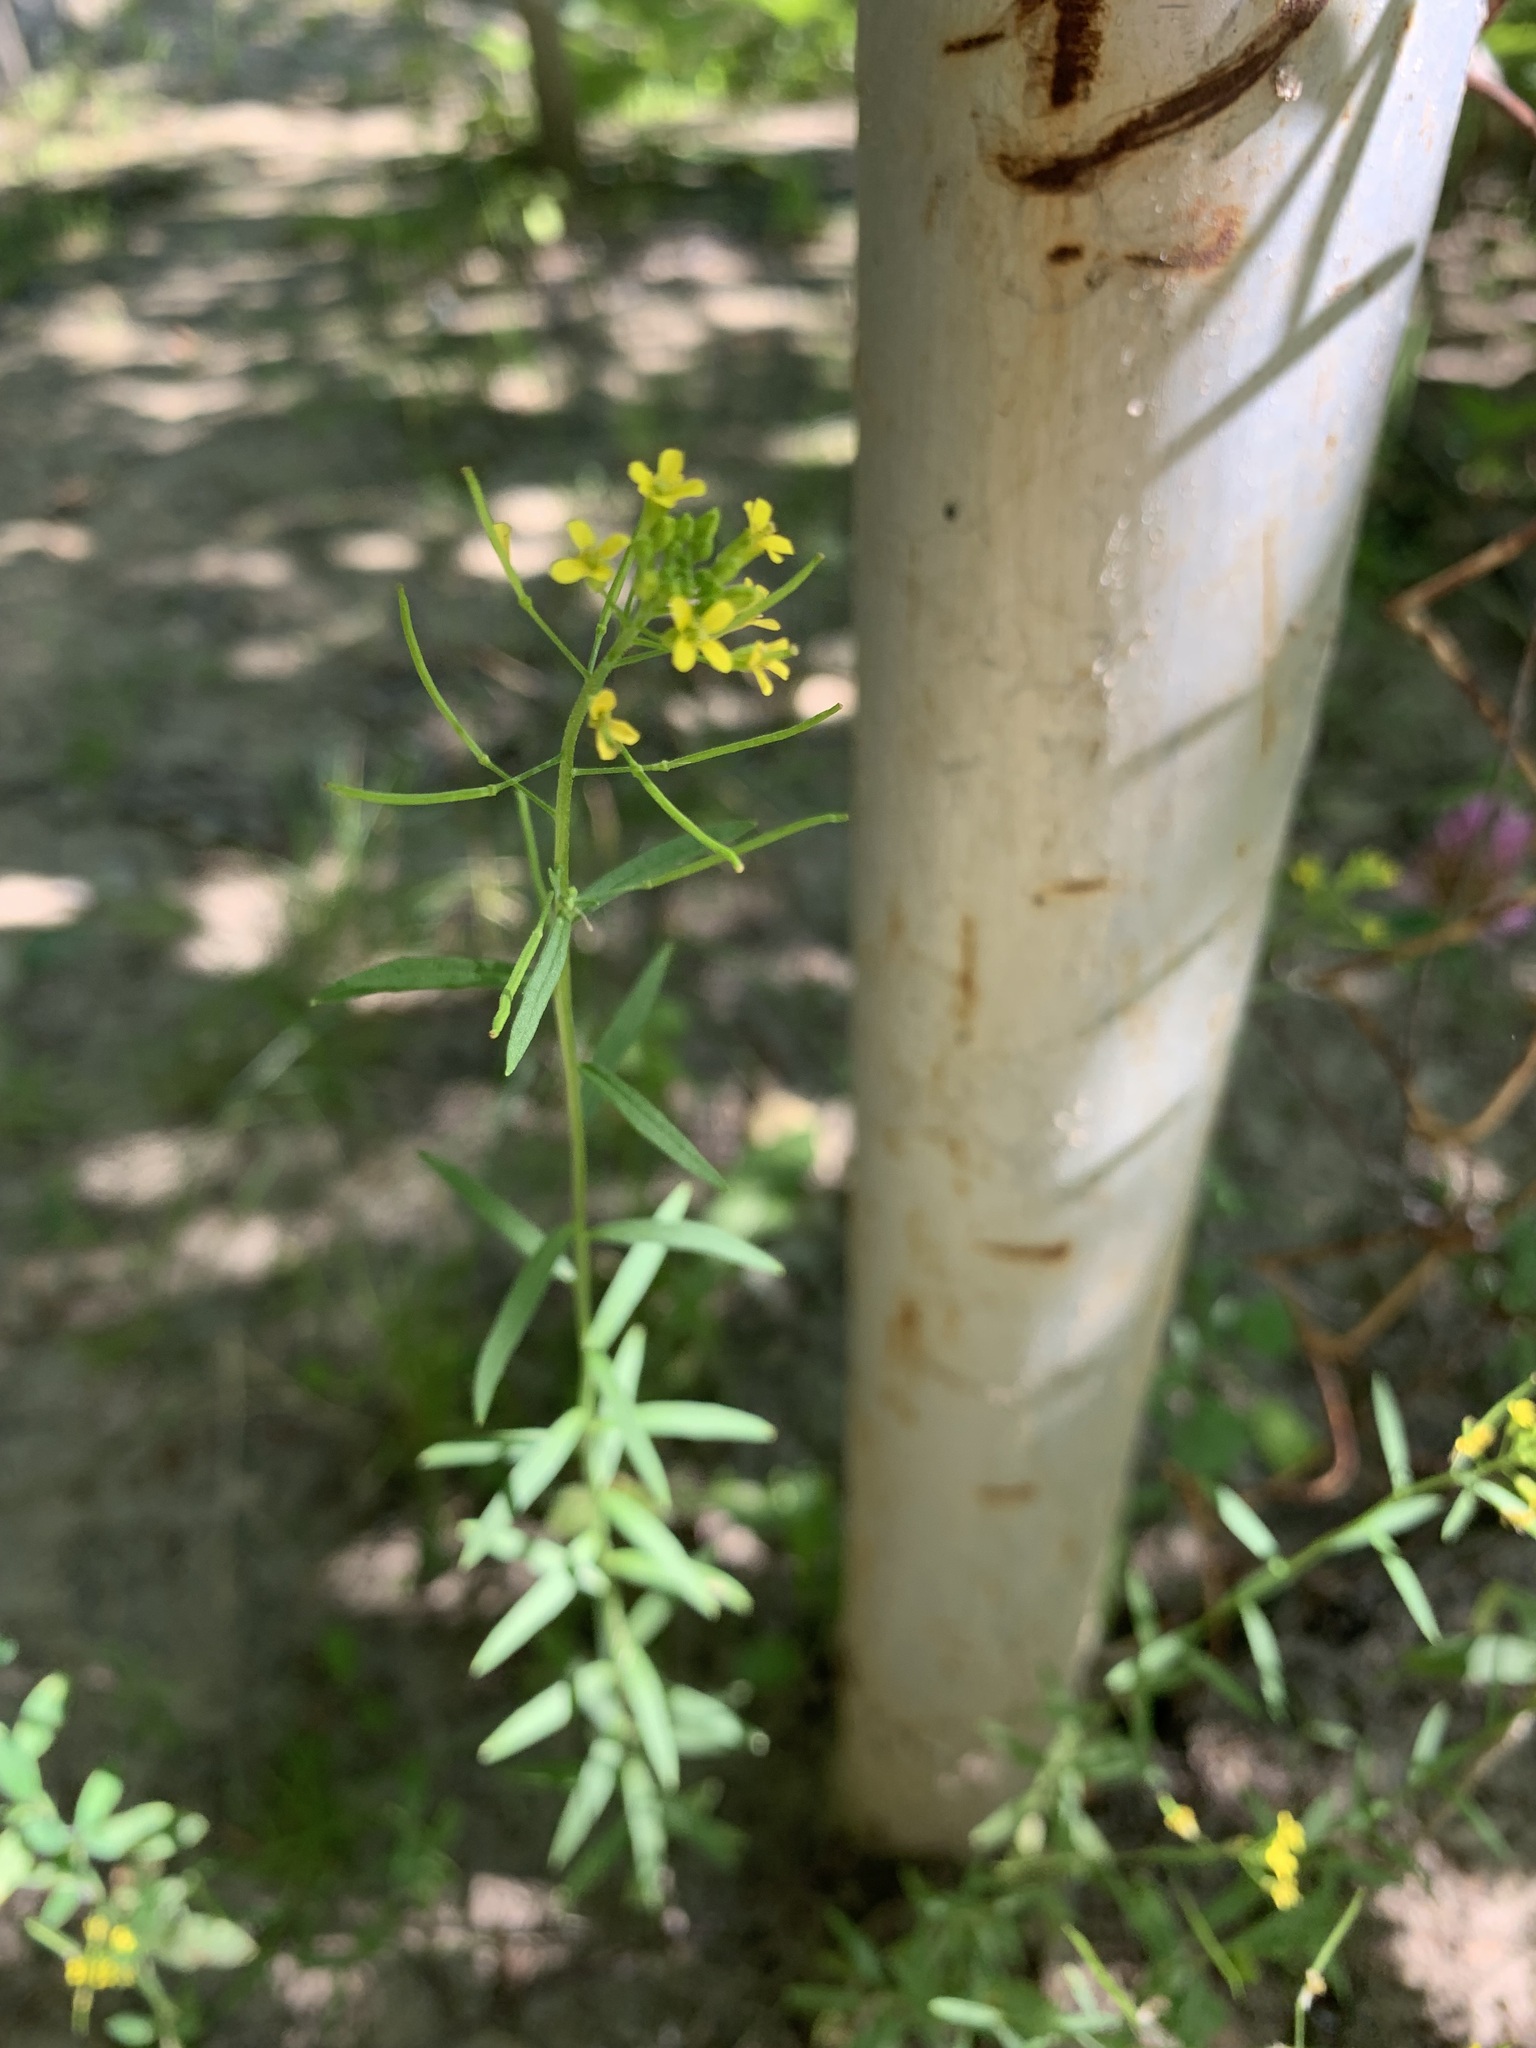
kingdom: Plantae
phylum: Tracheophyta
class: Magnoliopsida
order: Brassicales
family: Brassicaceae
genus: Erysimum
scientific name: Erysimum cheiranthoides
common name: Treacle mustard
